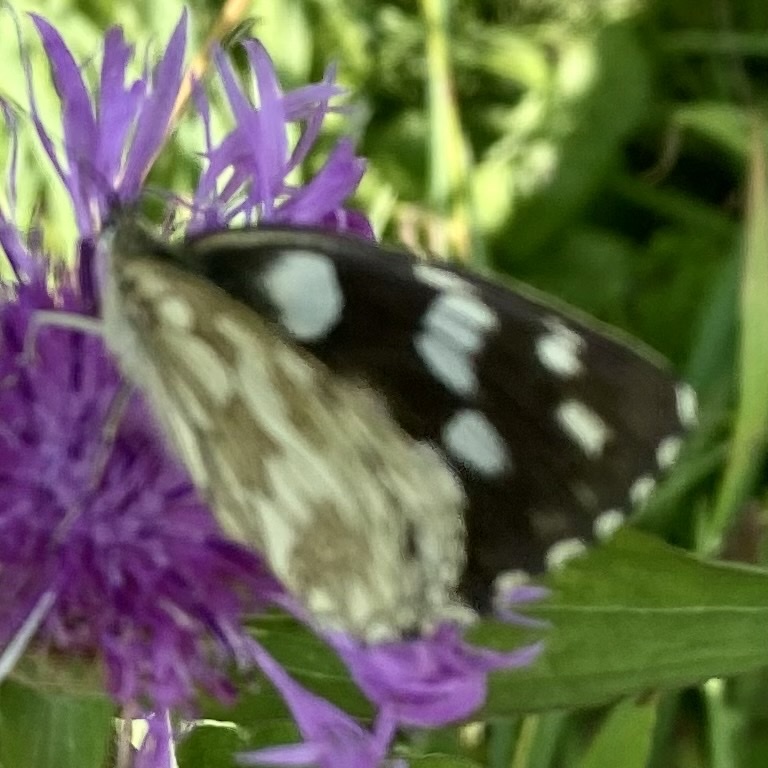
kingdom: Animalia
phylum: Arthropoda
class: Insecta
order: Lepidoptera
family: Nymphalidae
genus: Melanargia
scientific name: Melanargia galathea
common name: Marbled white
